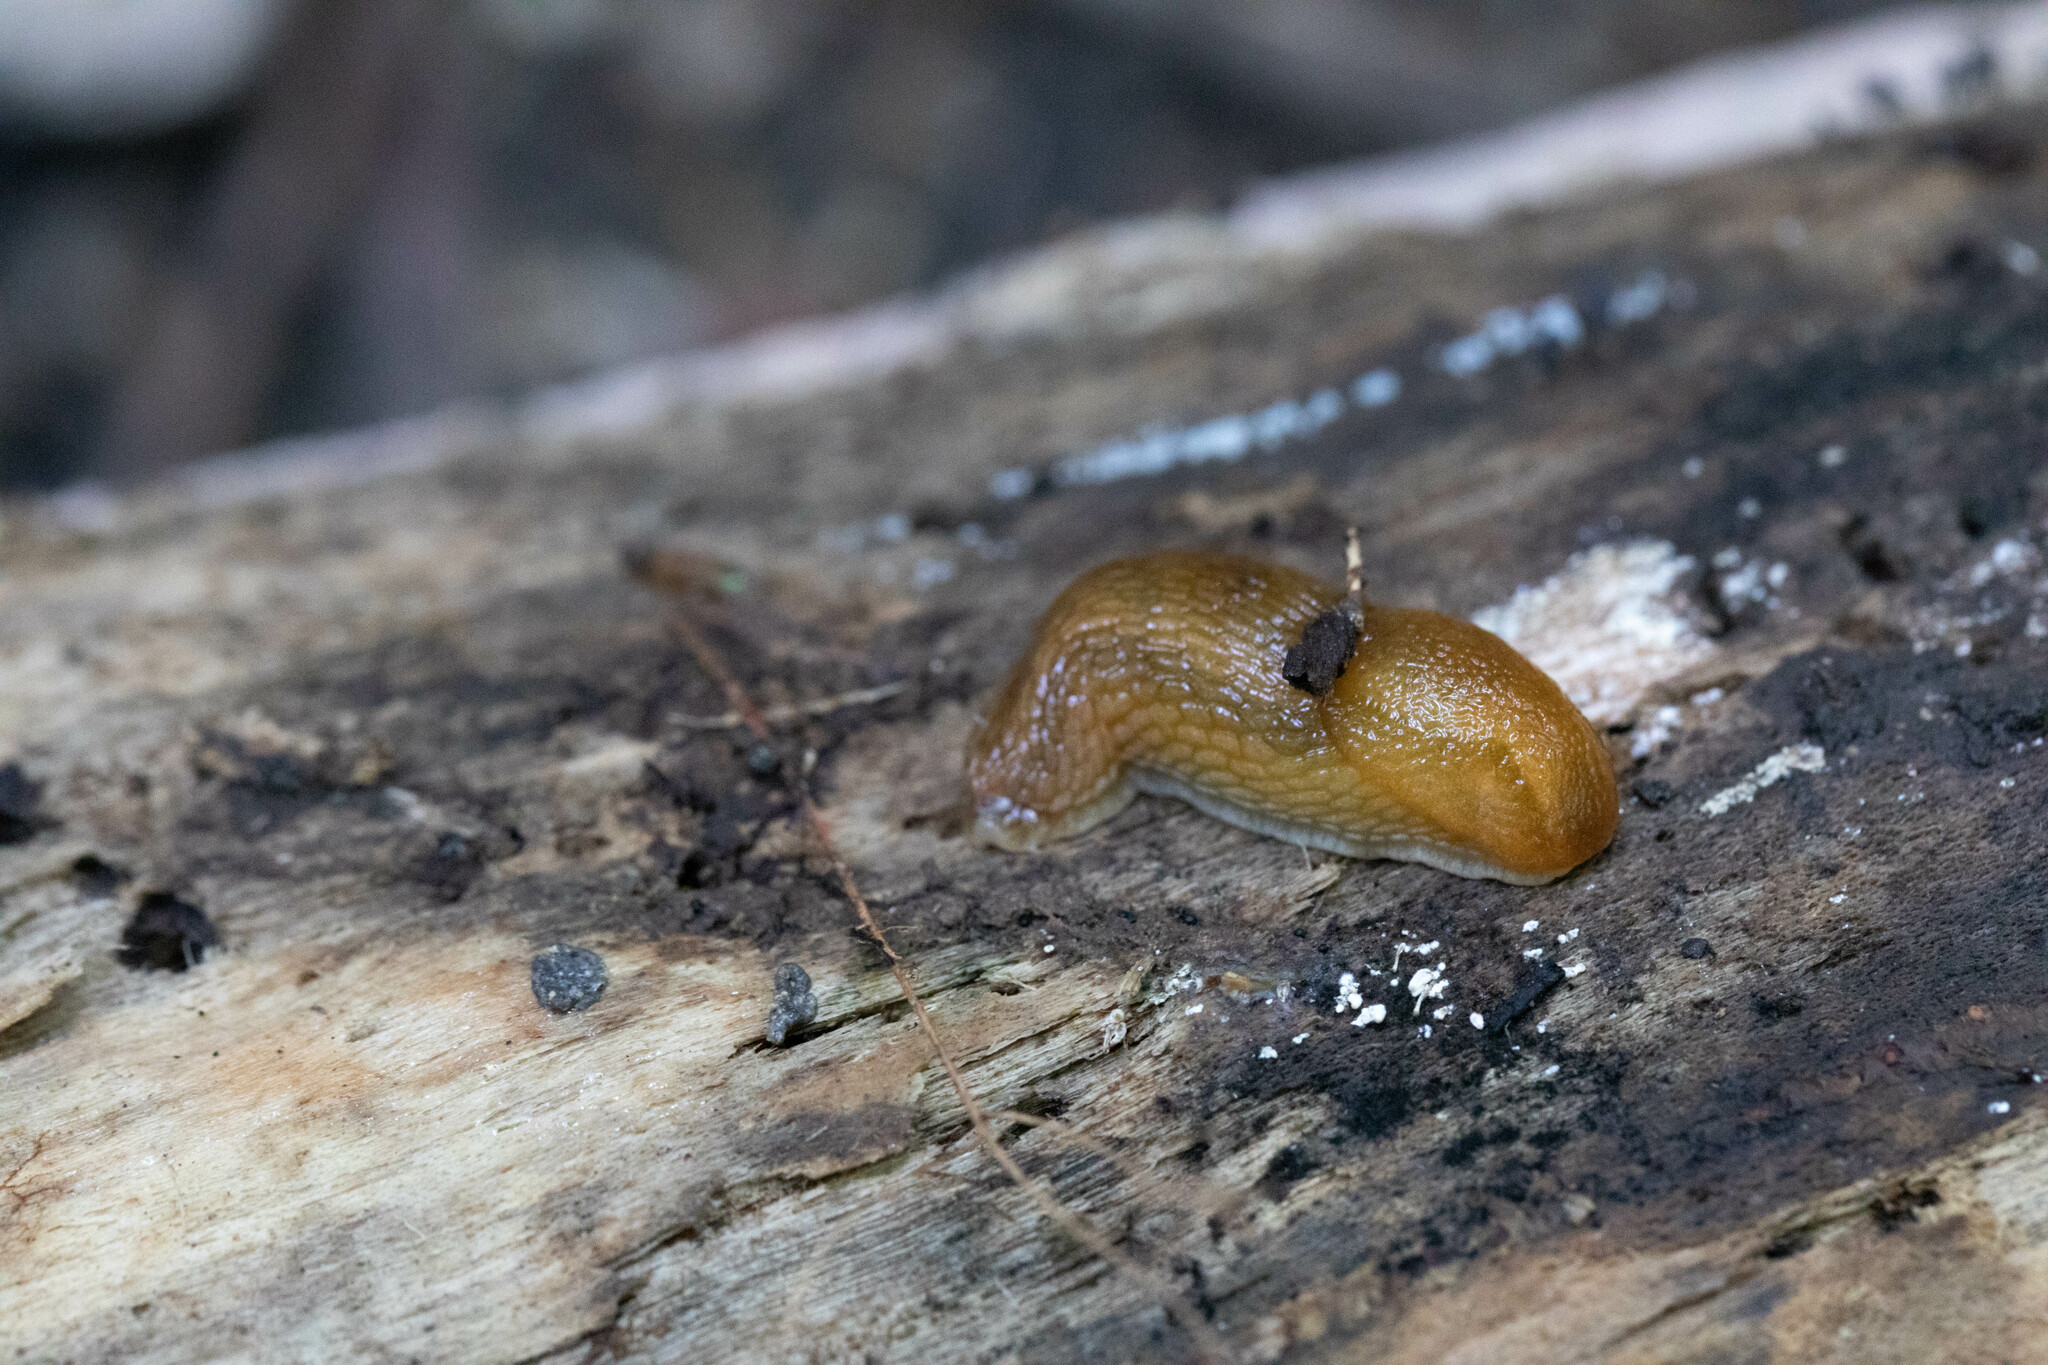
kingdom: Animalia
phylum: Mollusca
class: Gastropoda
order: Stylommatophora
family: Arionidae
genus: Arion
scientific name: Arion subfuscus
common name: Dusky arion
